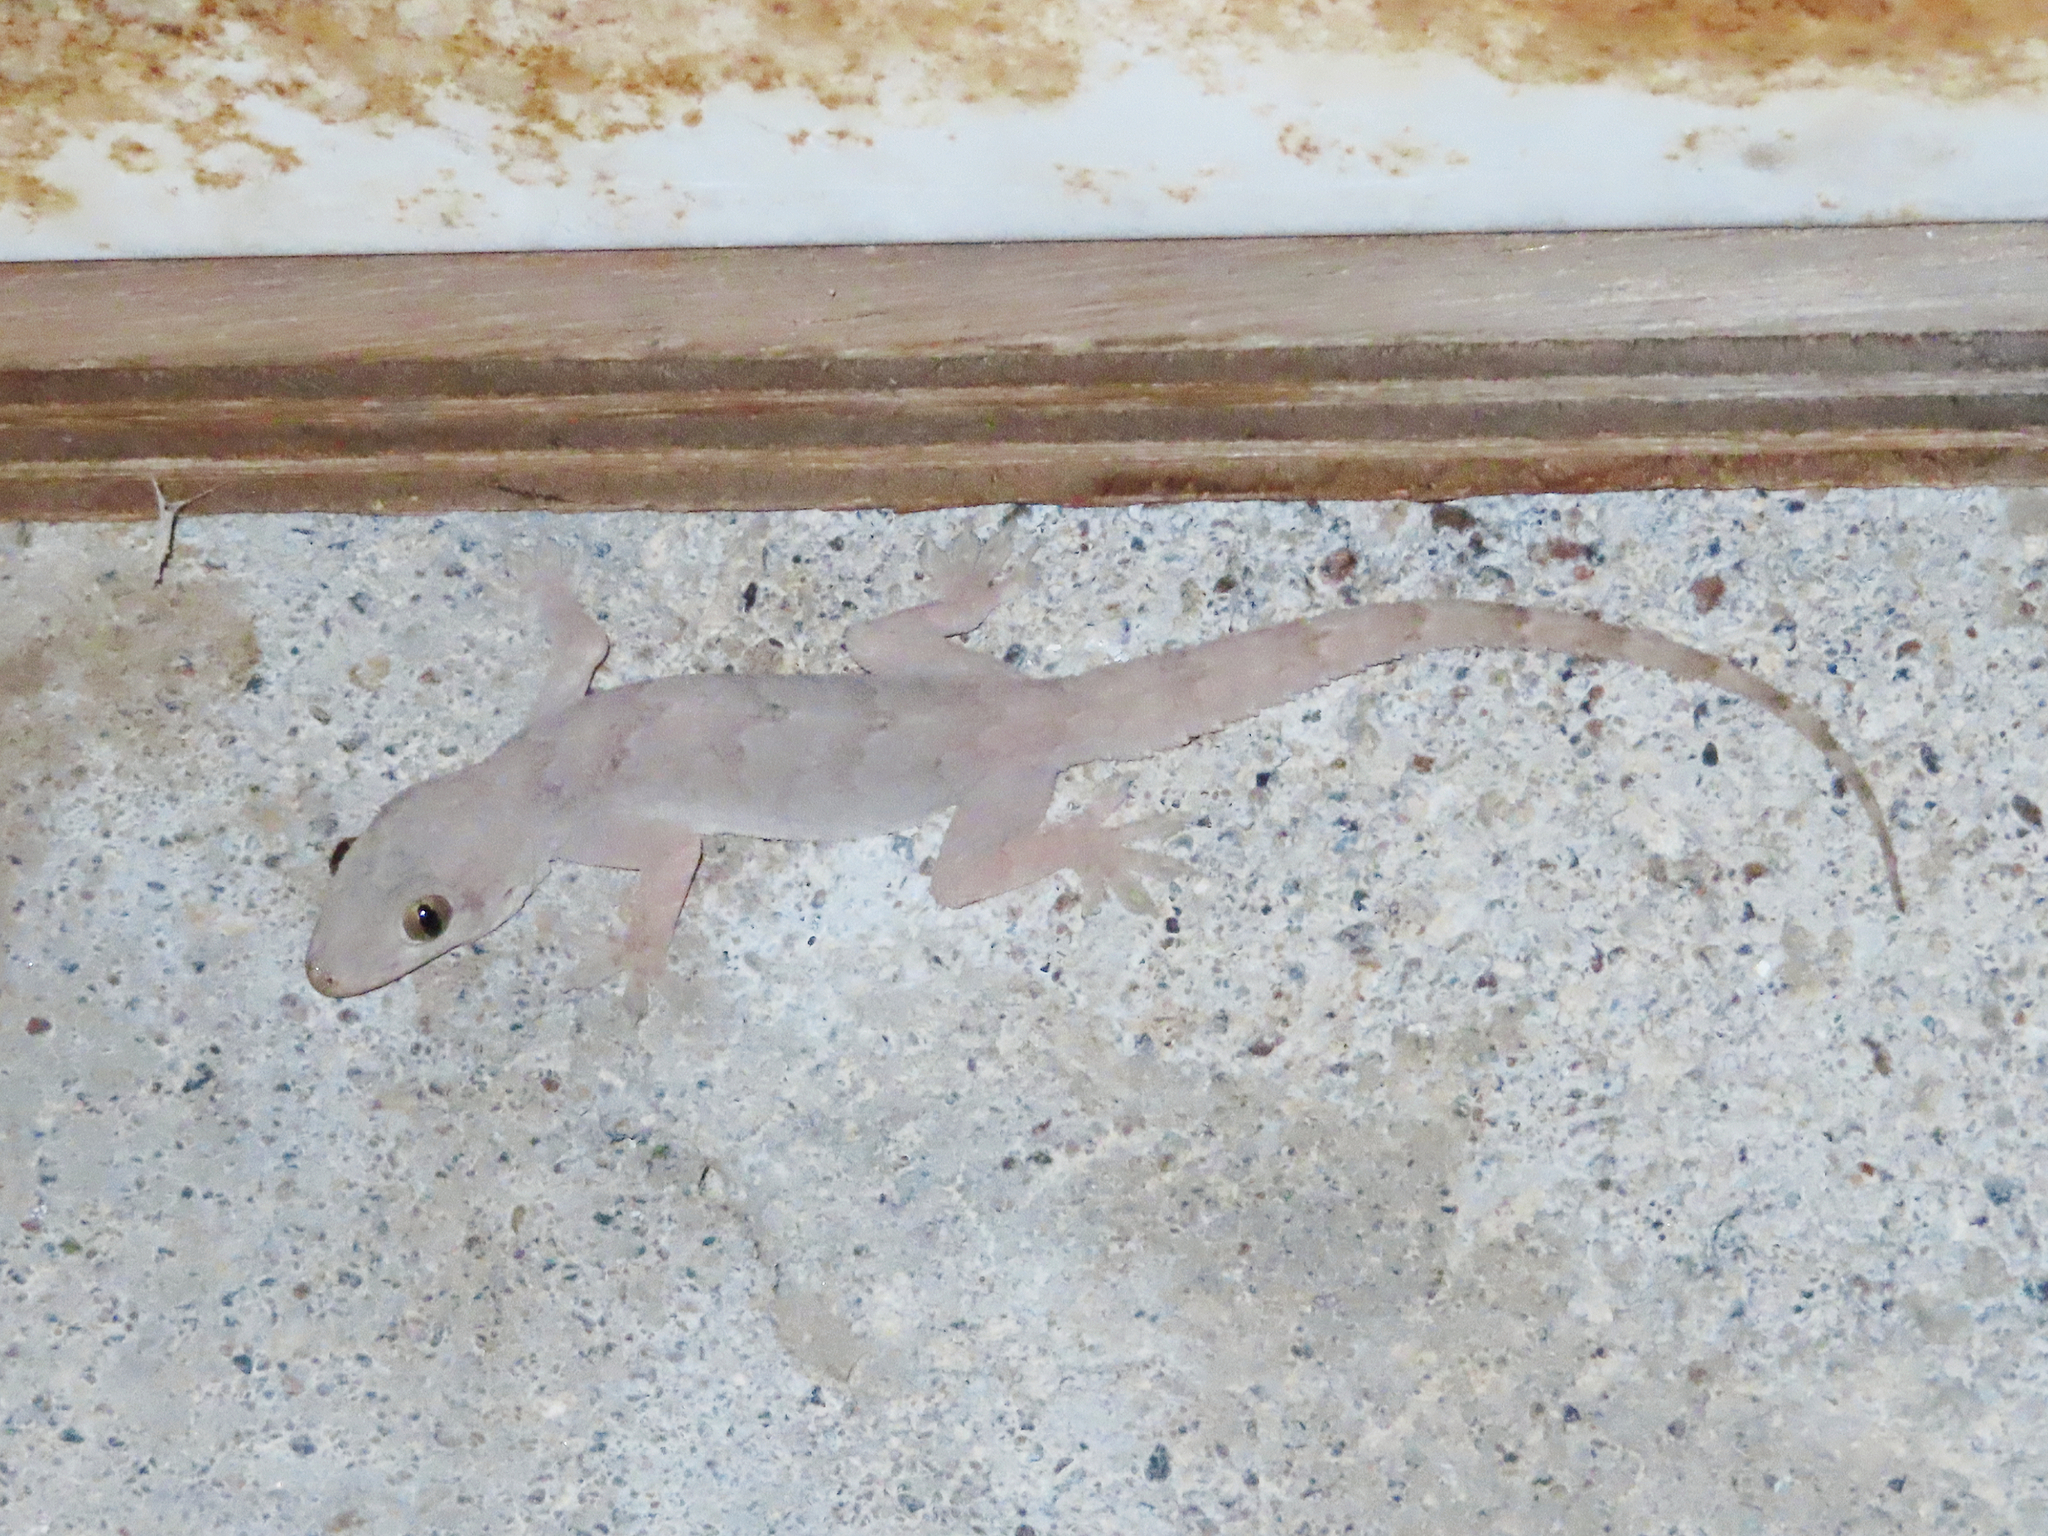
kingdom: Animalia
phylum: Chordata
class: Squamata
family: Gekkonidae
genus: Hemidactylus
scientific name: Hemidactylus flaviviridis
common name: Northern house gecko
